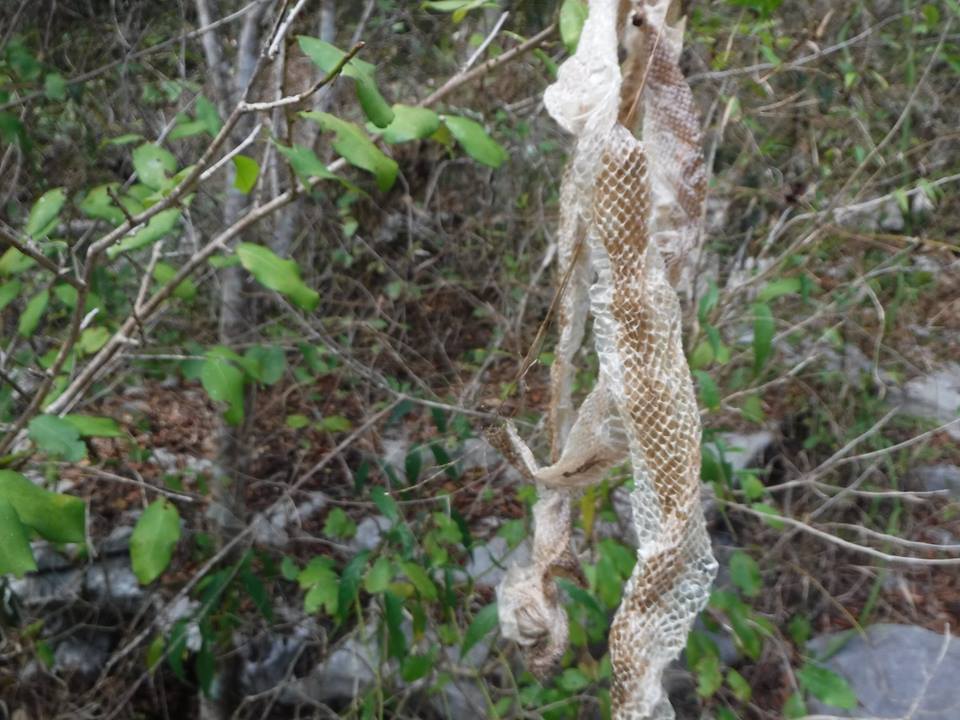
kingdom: Animalia
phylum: Chordata
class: Squamata
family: Boidae
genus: Chilabothrus
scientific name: Chilabothrus angulifer
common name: Cuban boa
